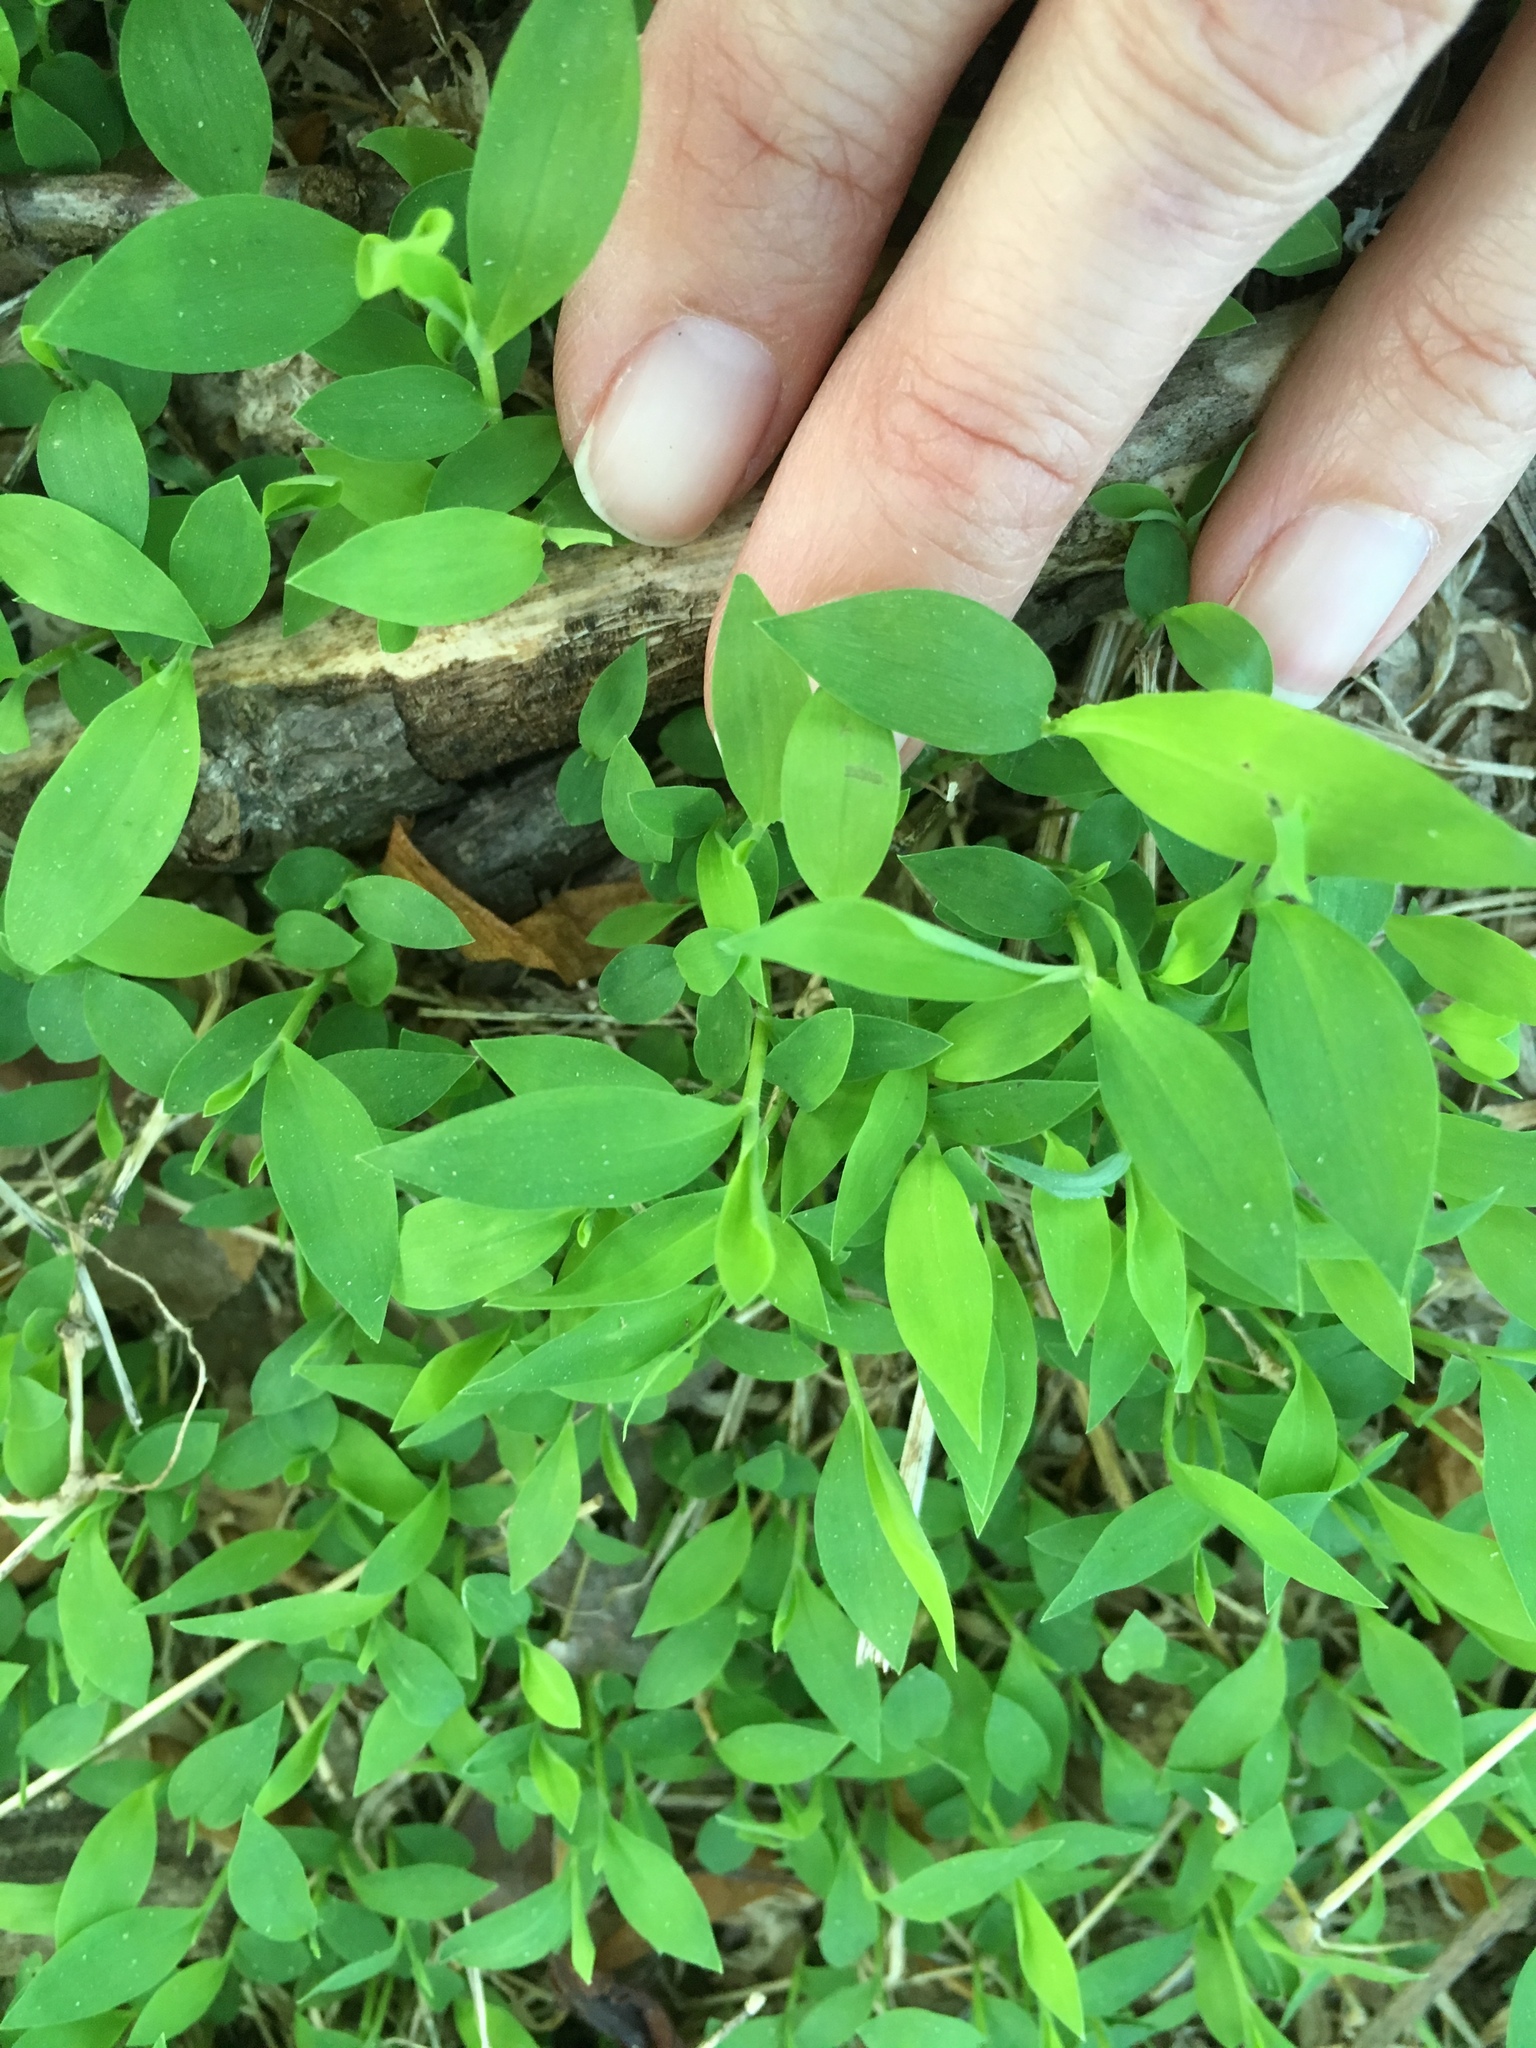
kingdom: Plantae
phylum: Tracheophyta
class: Liliopsida
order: Poales
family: Poaceae
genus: Microstegium
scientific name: Microstegium vimineum
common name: Japanese stiltgrass
